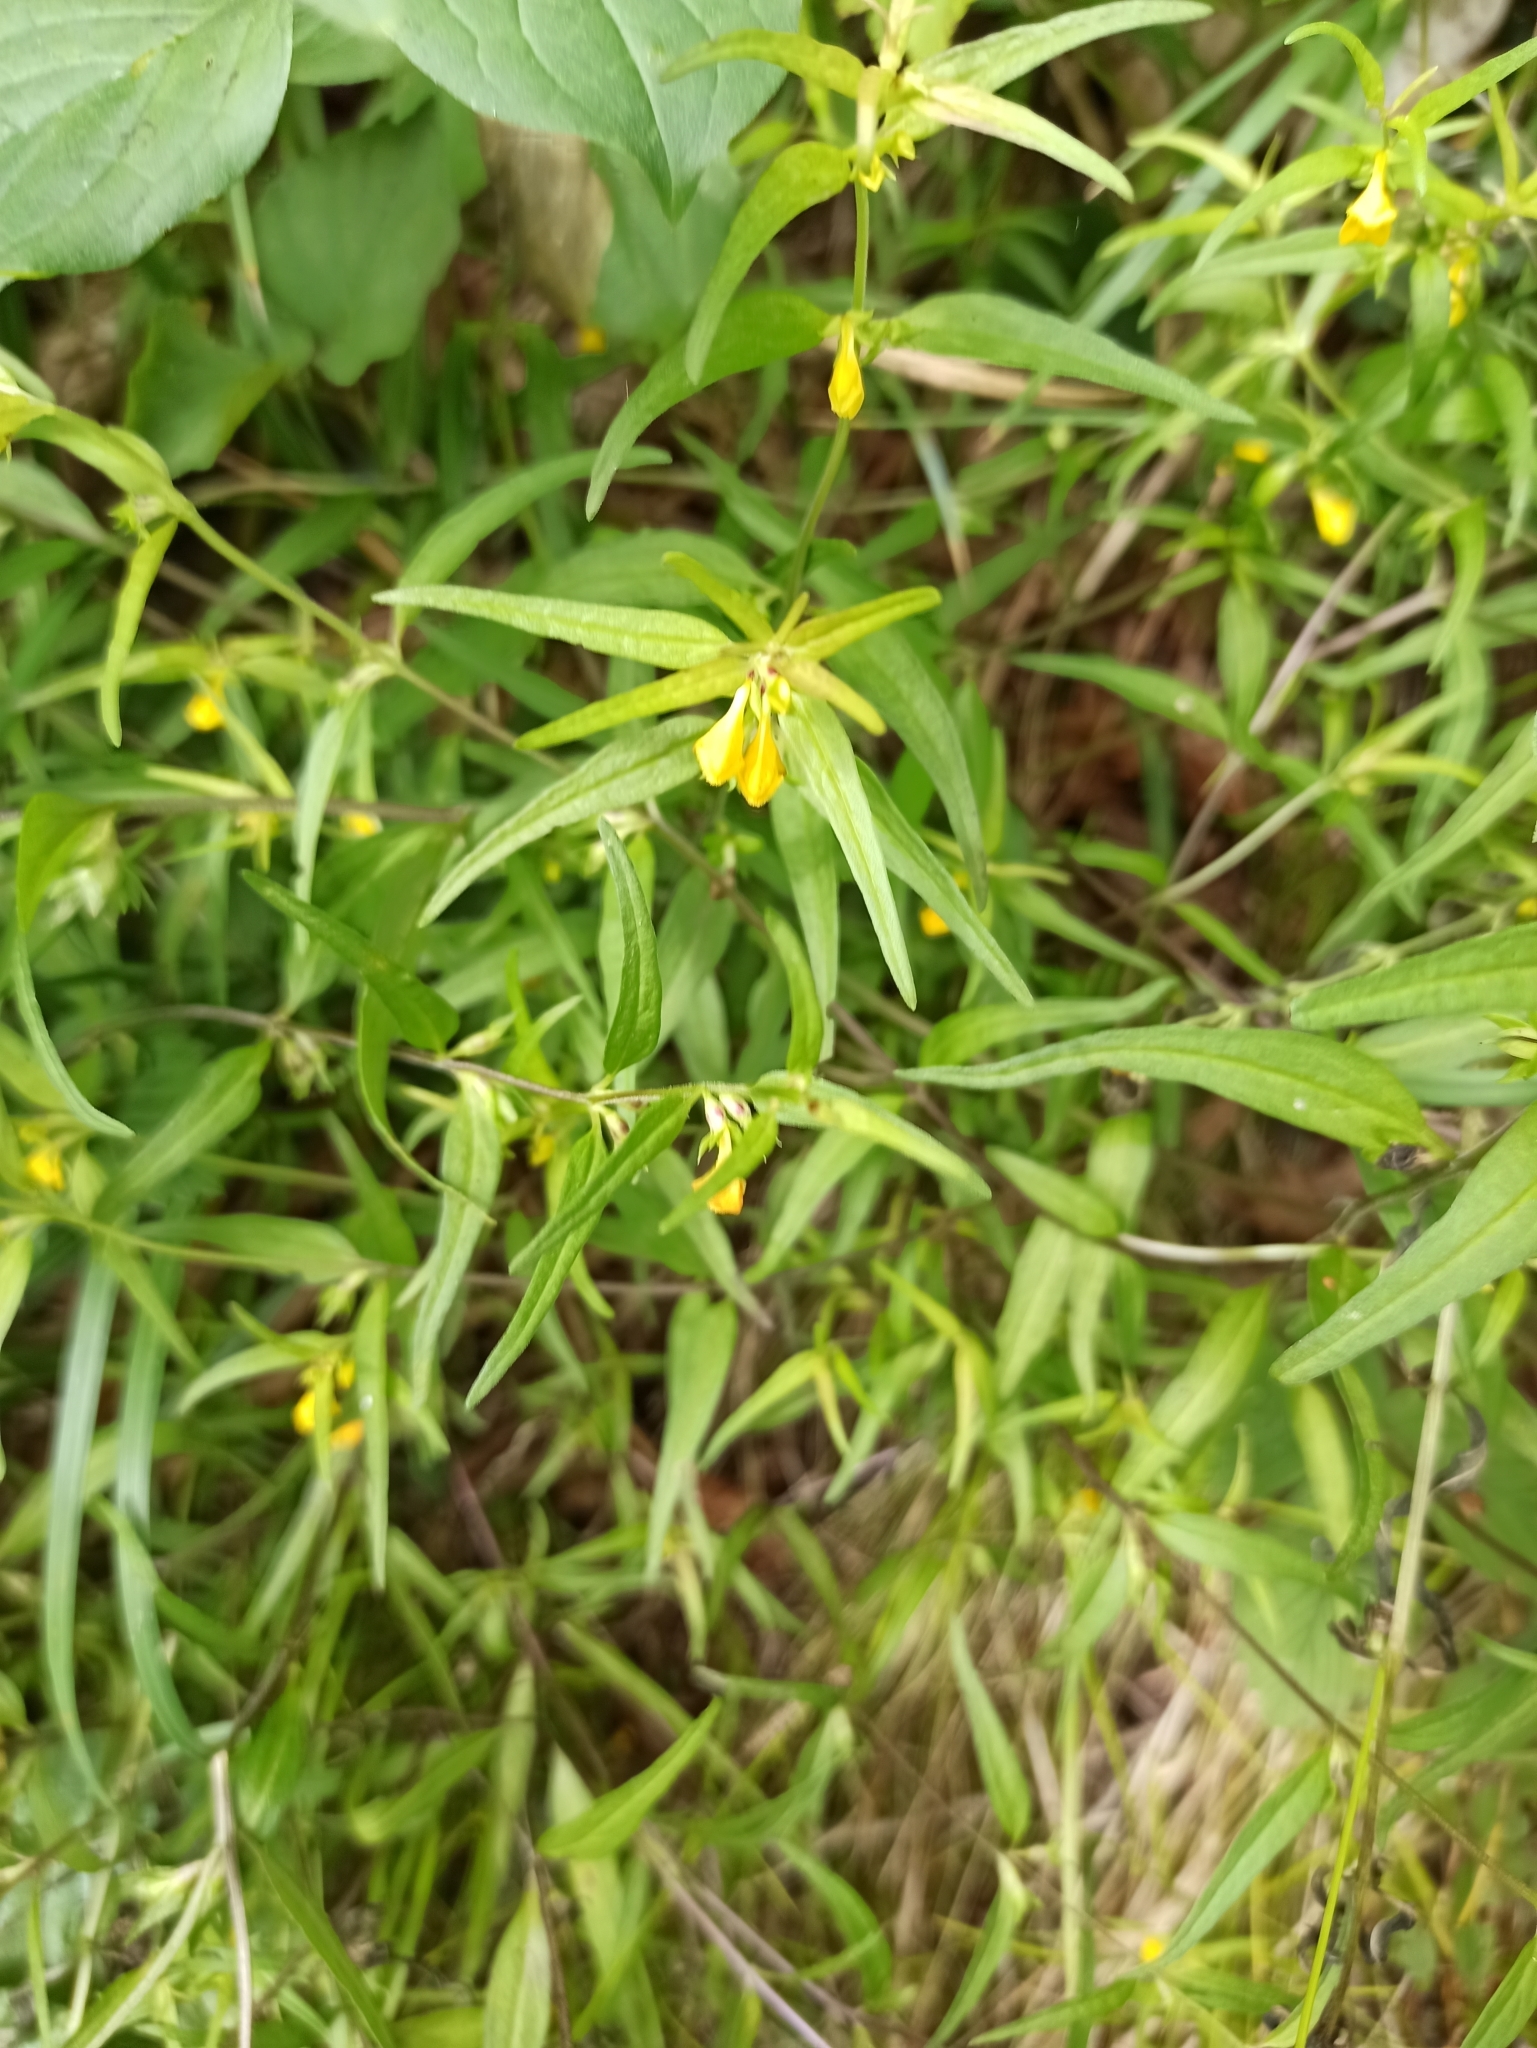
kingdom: Plantae
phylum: Tracheophyta
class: Magnoliopsida
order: Lamiales
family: Orobanchaceae
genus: Melampyrum
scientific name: Melampyrum sylvaticum
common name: Small cow-wheat
